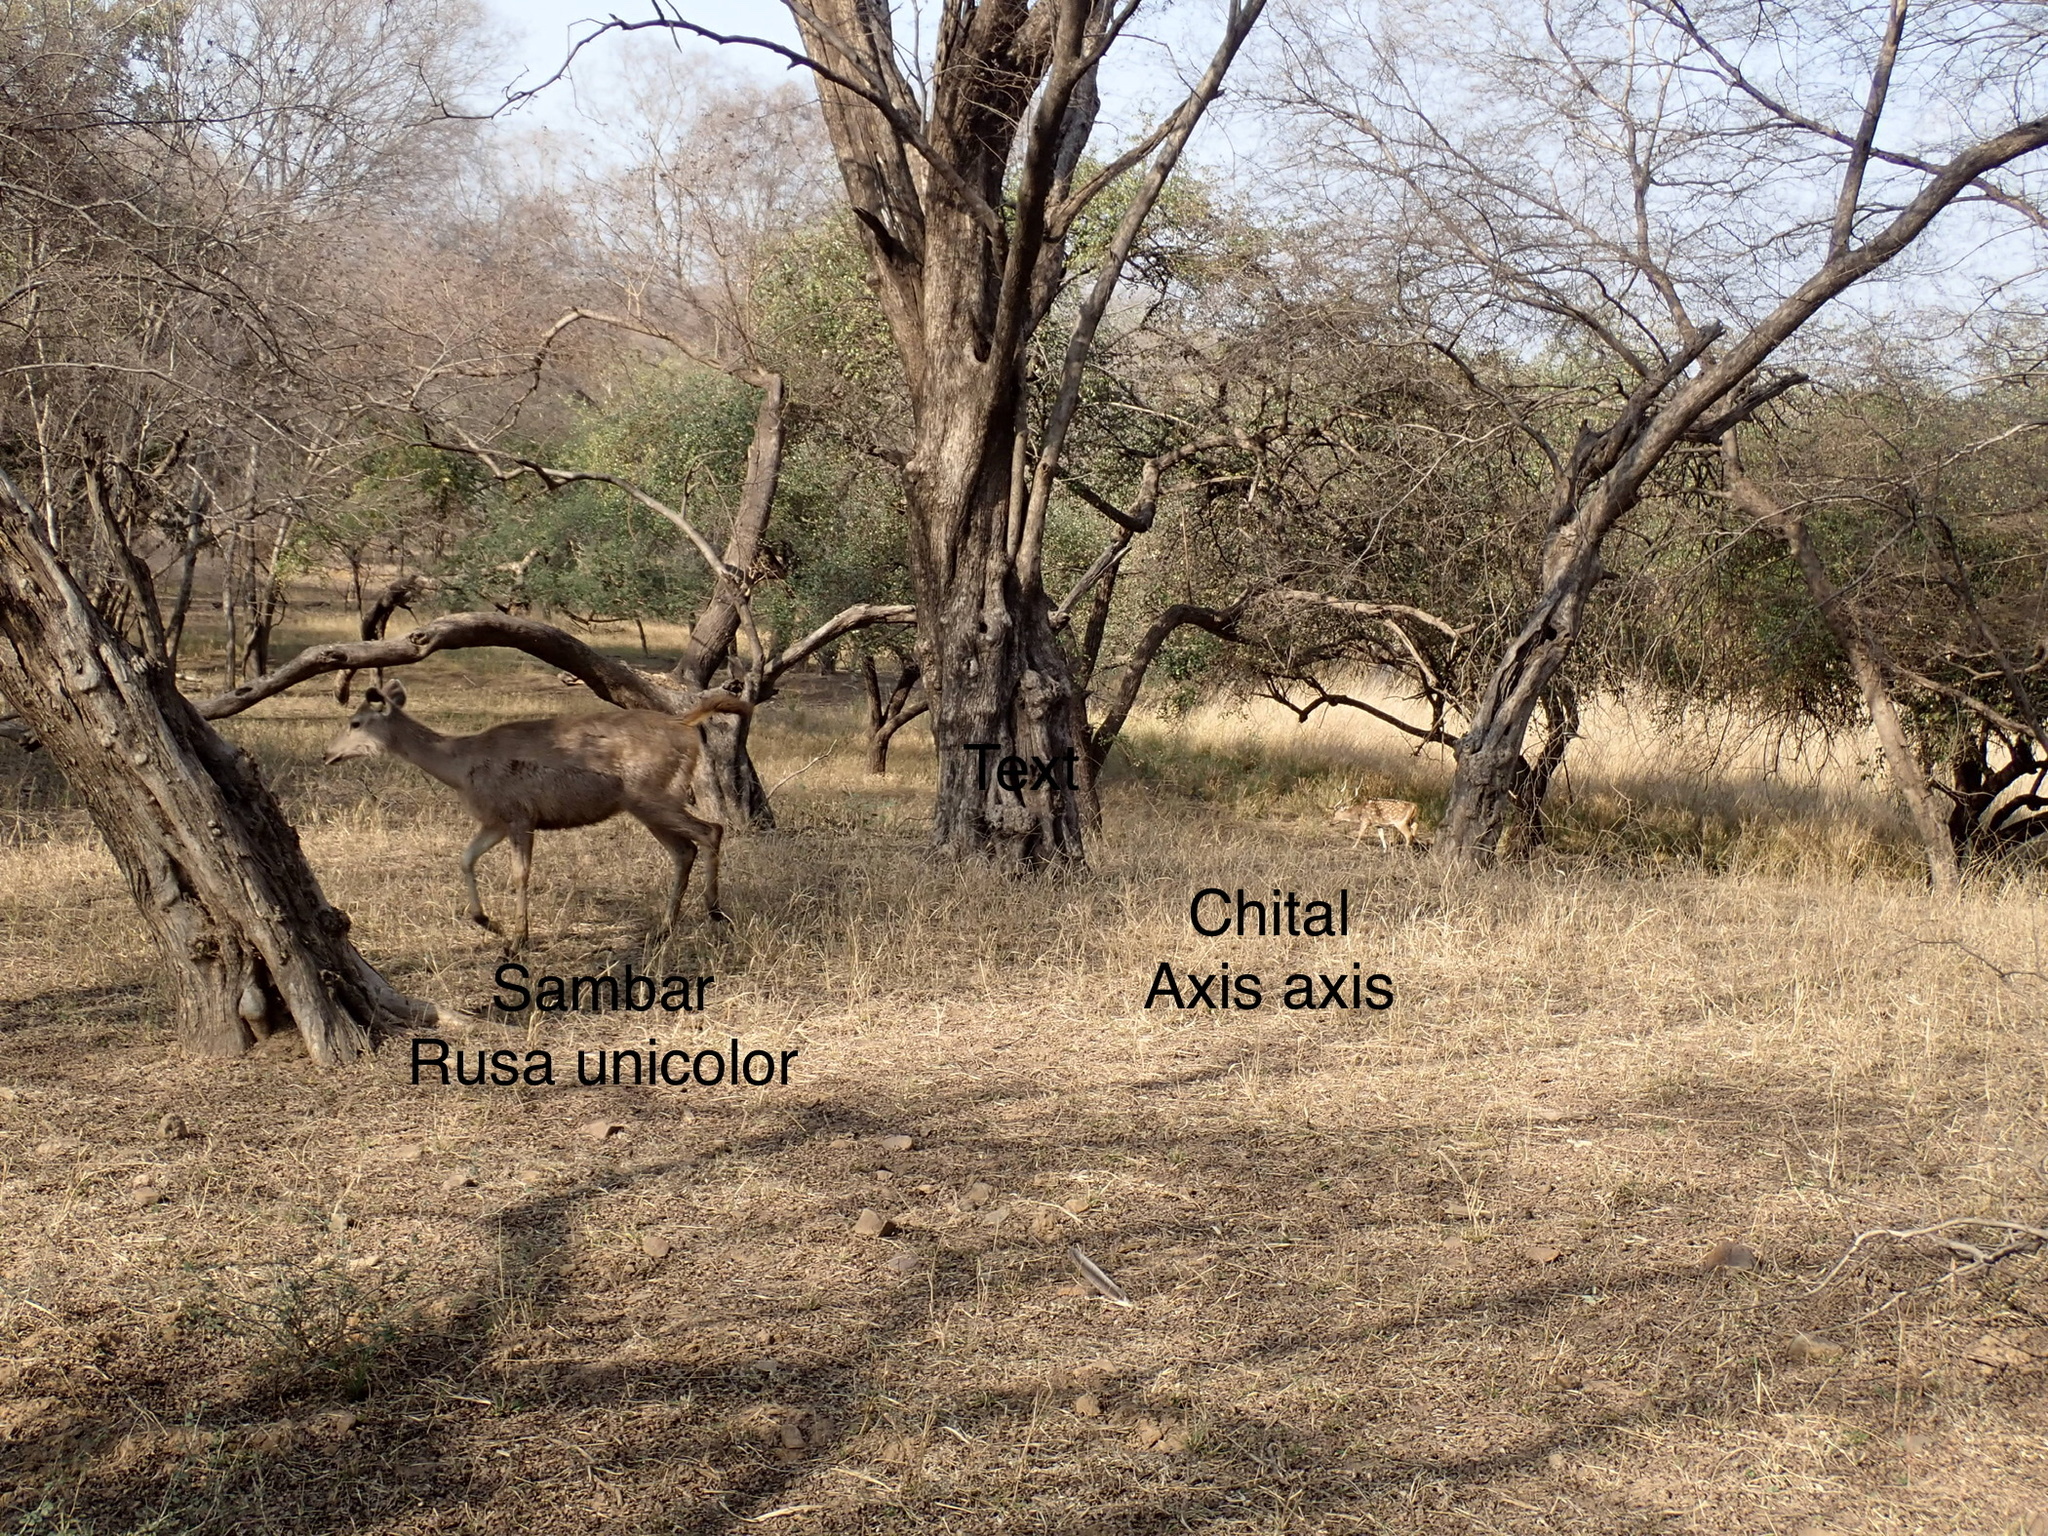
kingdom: Animalia
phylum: Chordata
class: Mammalia
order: Artiodactyla
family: Cervidae
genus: Axis
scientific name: Axis axis
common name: Chital
